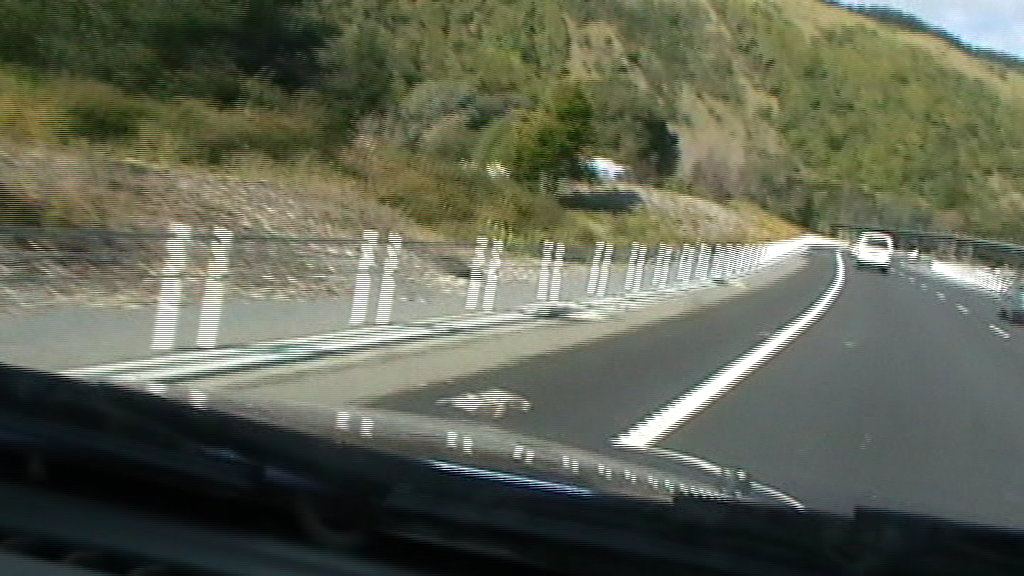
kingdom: Animalia
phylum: Chordata
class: Mammalia
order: Lagomorpha
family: Leporidae
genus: Oryctolagus
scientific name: Oryctolagus cuniculus
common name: European rabbit
